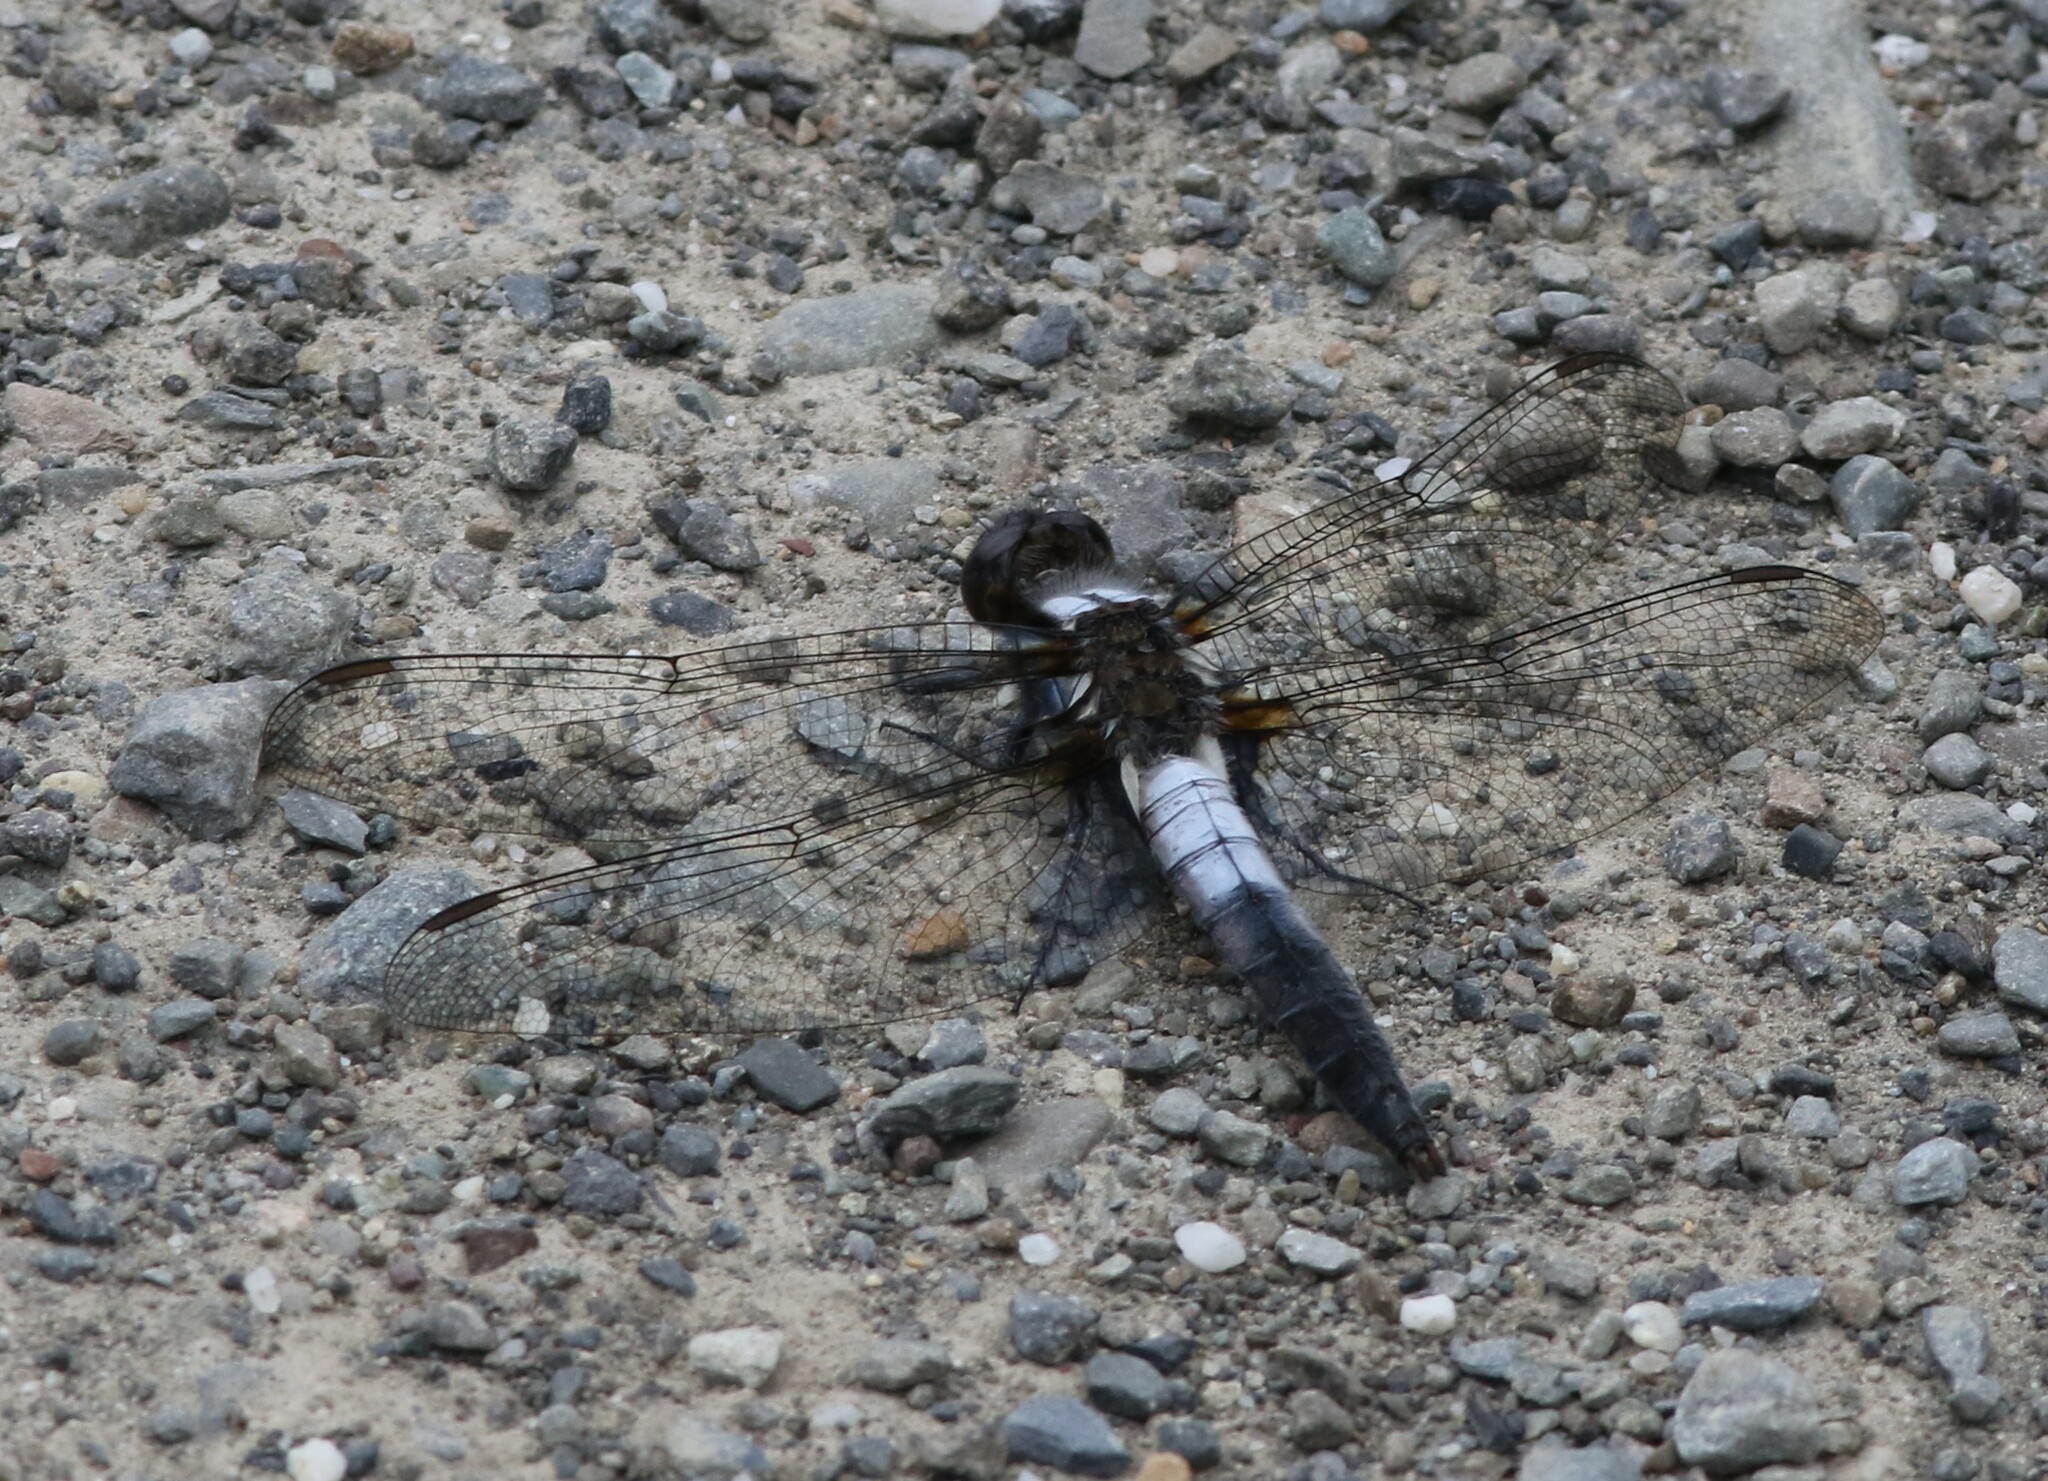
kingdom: Animalia
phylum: Arthropoda
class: Insecta
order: Odonata
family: Libellulidae
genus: Ladona
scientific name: Ladona julia
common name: Chalk-fronted corporal
